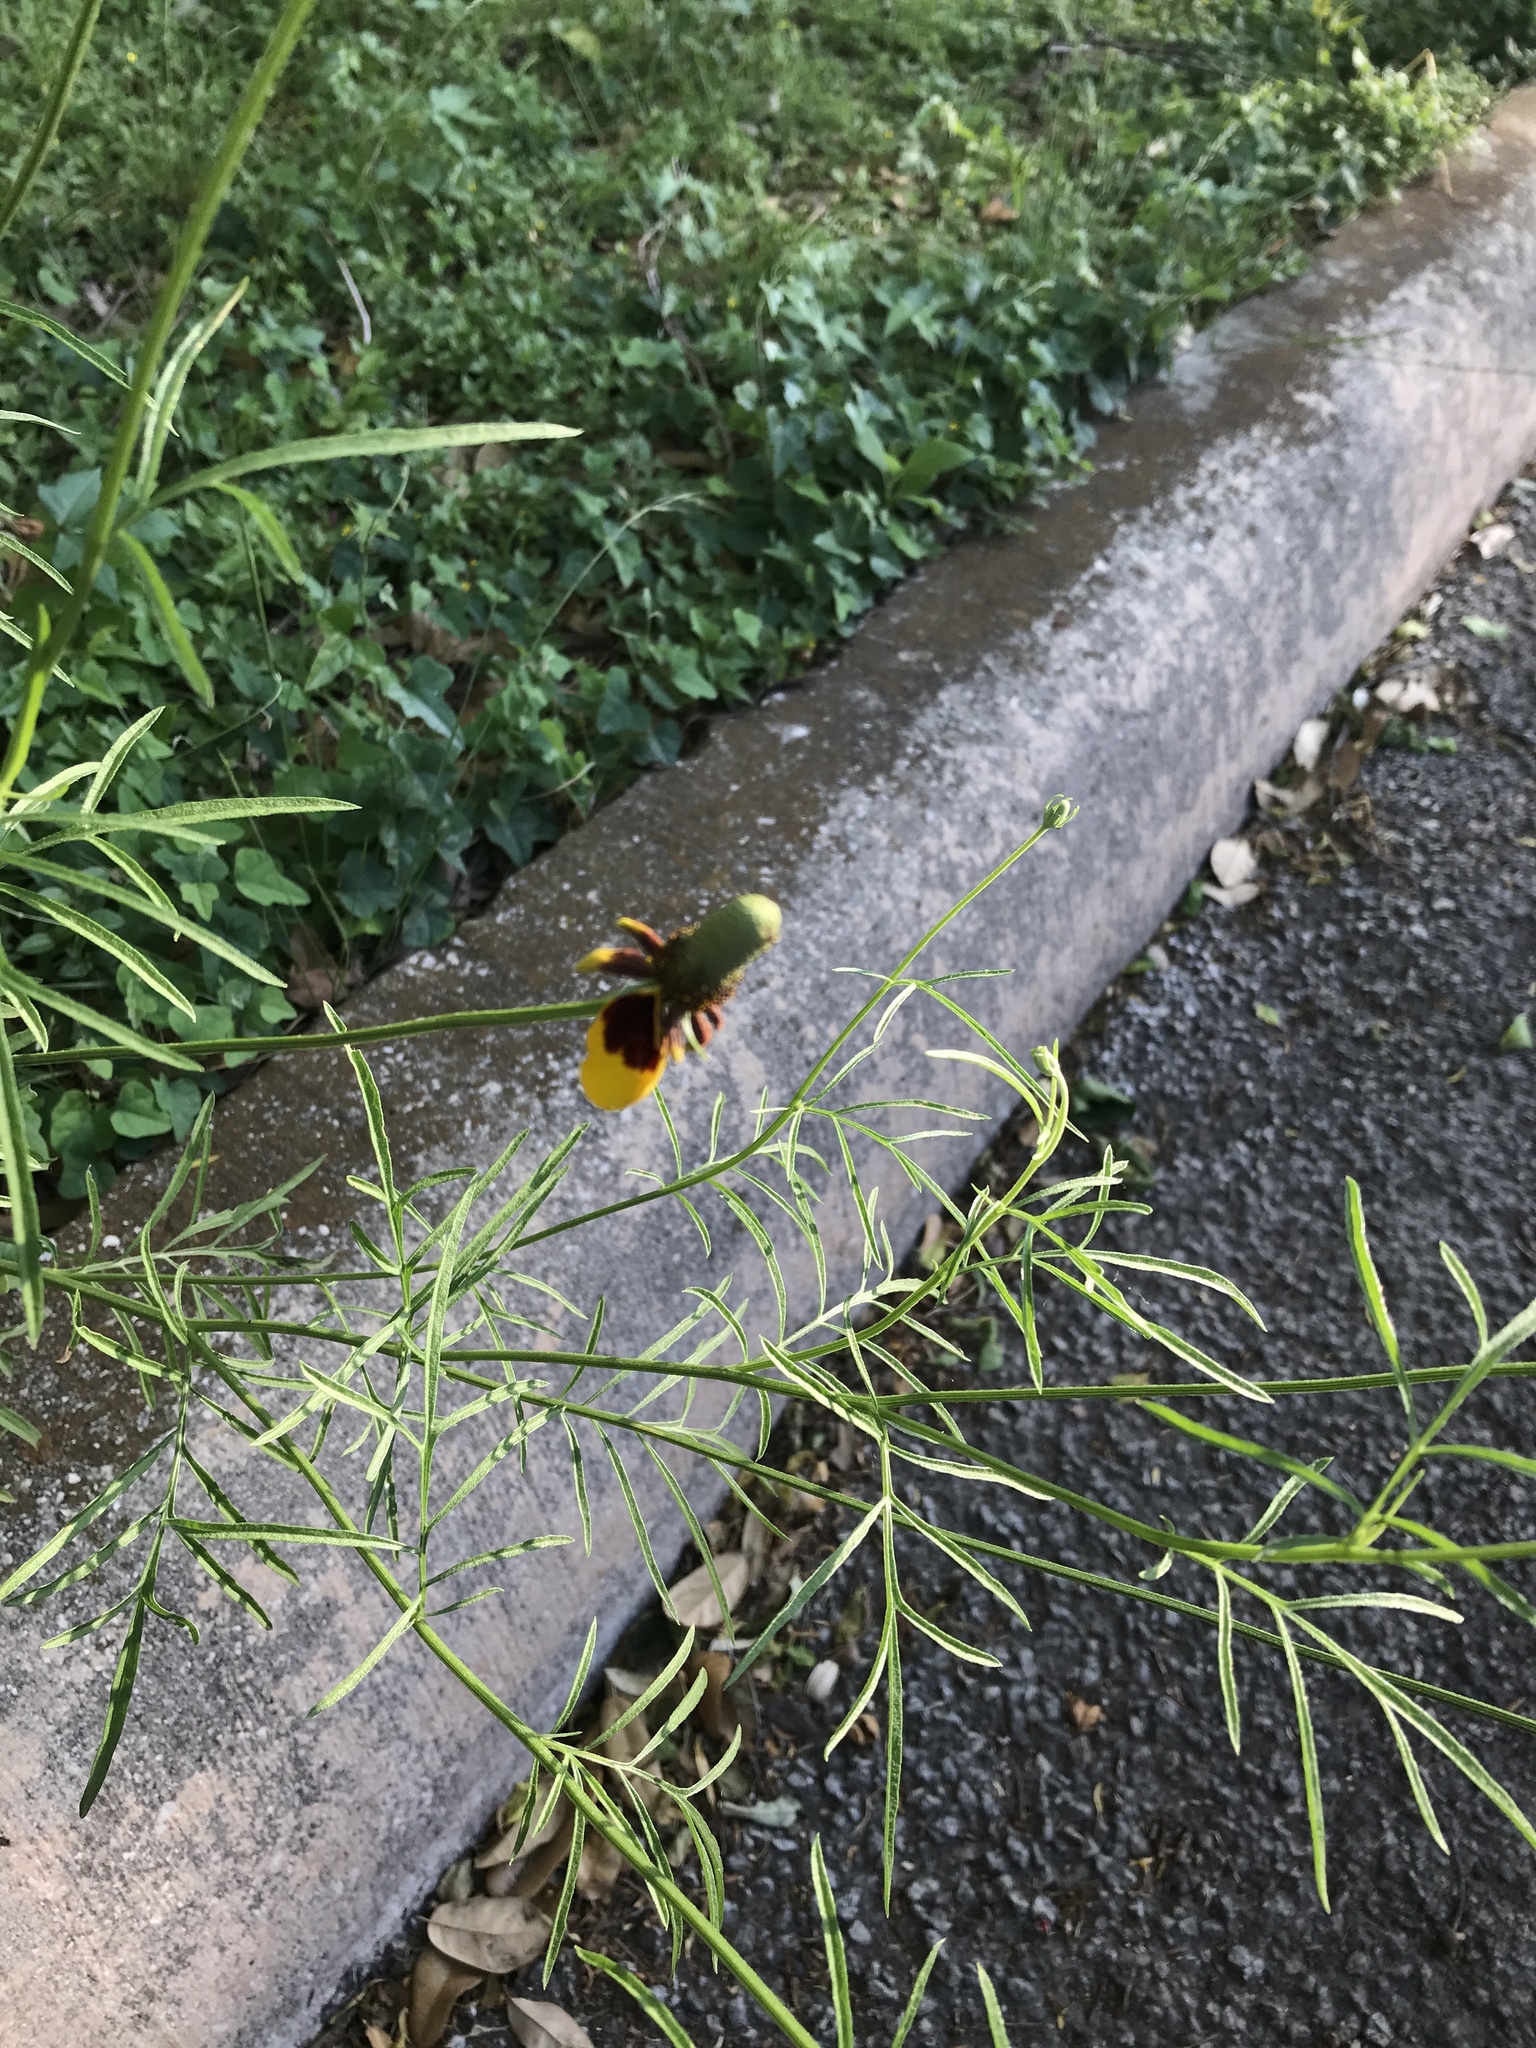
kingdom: Plantae
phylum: Tracheophyta
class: Magnoliopsida
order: Asterales
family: Asteraceae
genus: Ratibida
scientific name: Ratibida columnifera
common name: Prairie coneflower
